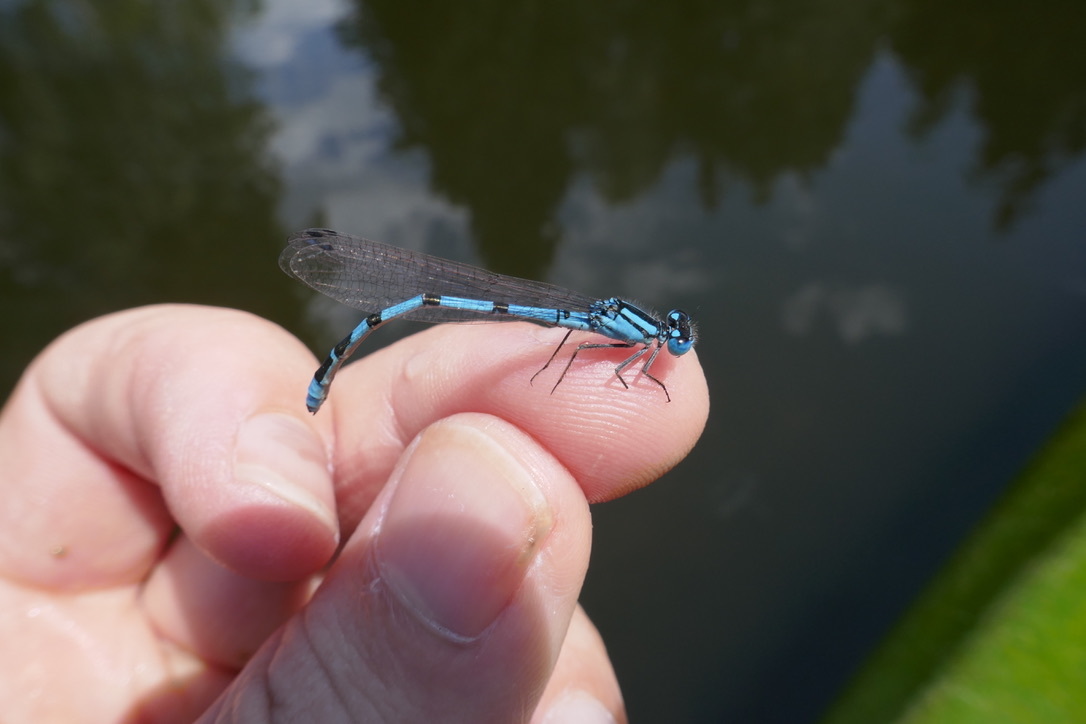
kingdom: Animalia
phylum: Arthropoda
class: Insecta
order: Odonata
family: Coenagrionidae
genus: Enallagma
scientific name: Enallagma cyathigerum
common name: Common blue damselfly
